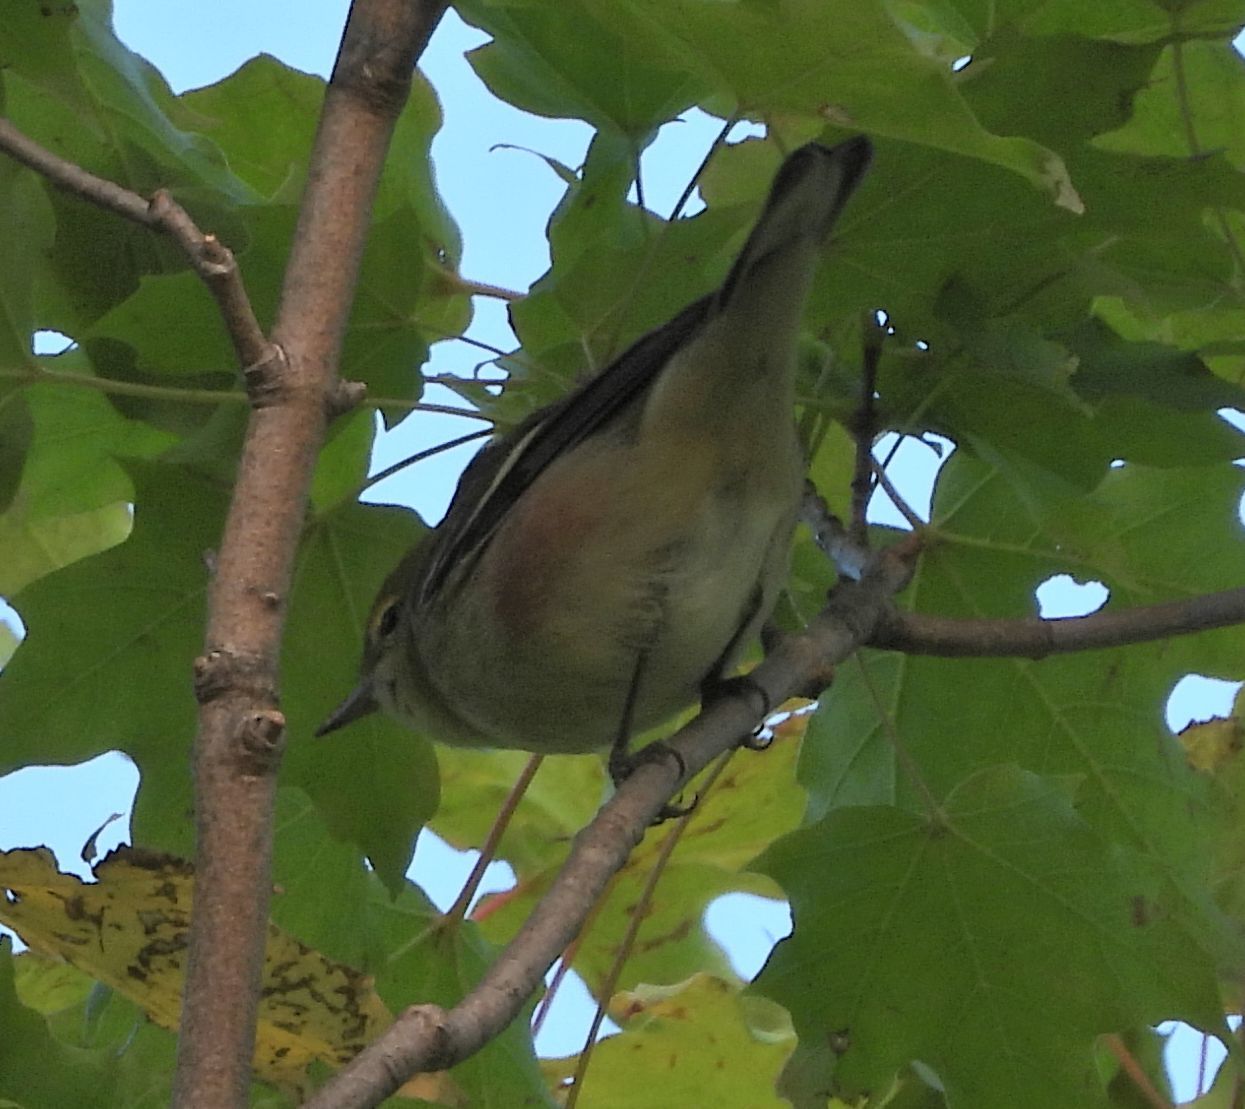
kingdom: Animalia
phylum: Chordata
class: Aves
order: Passeriformes
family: Parulidae
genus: Setophaga
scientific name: Setophaga castanea
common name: Bay-breasted warbler
